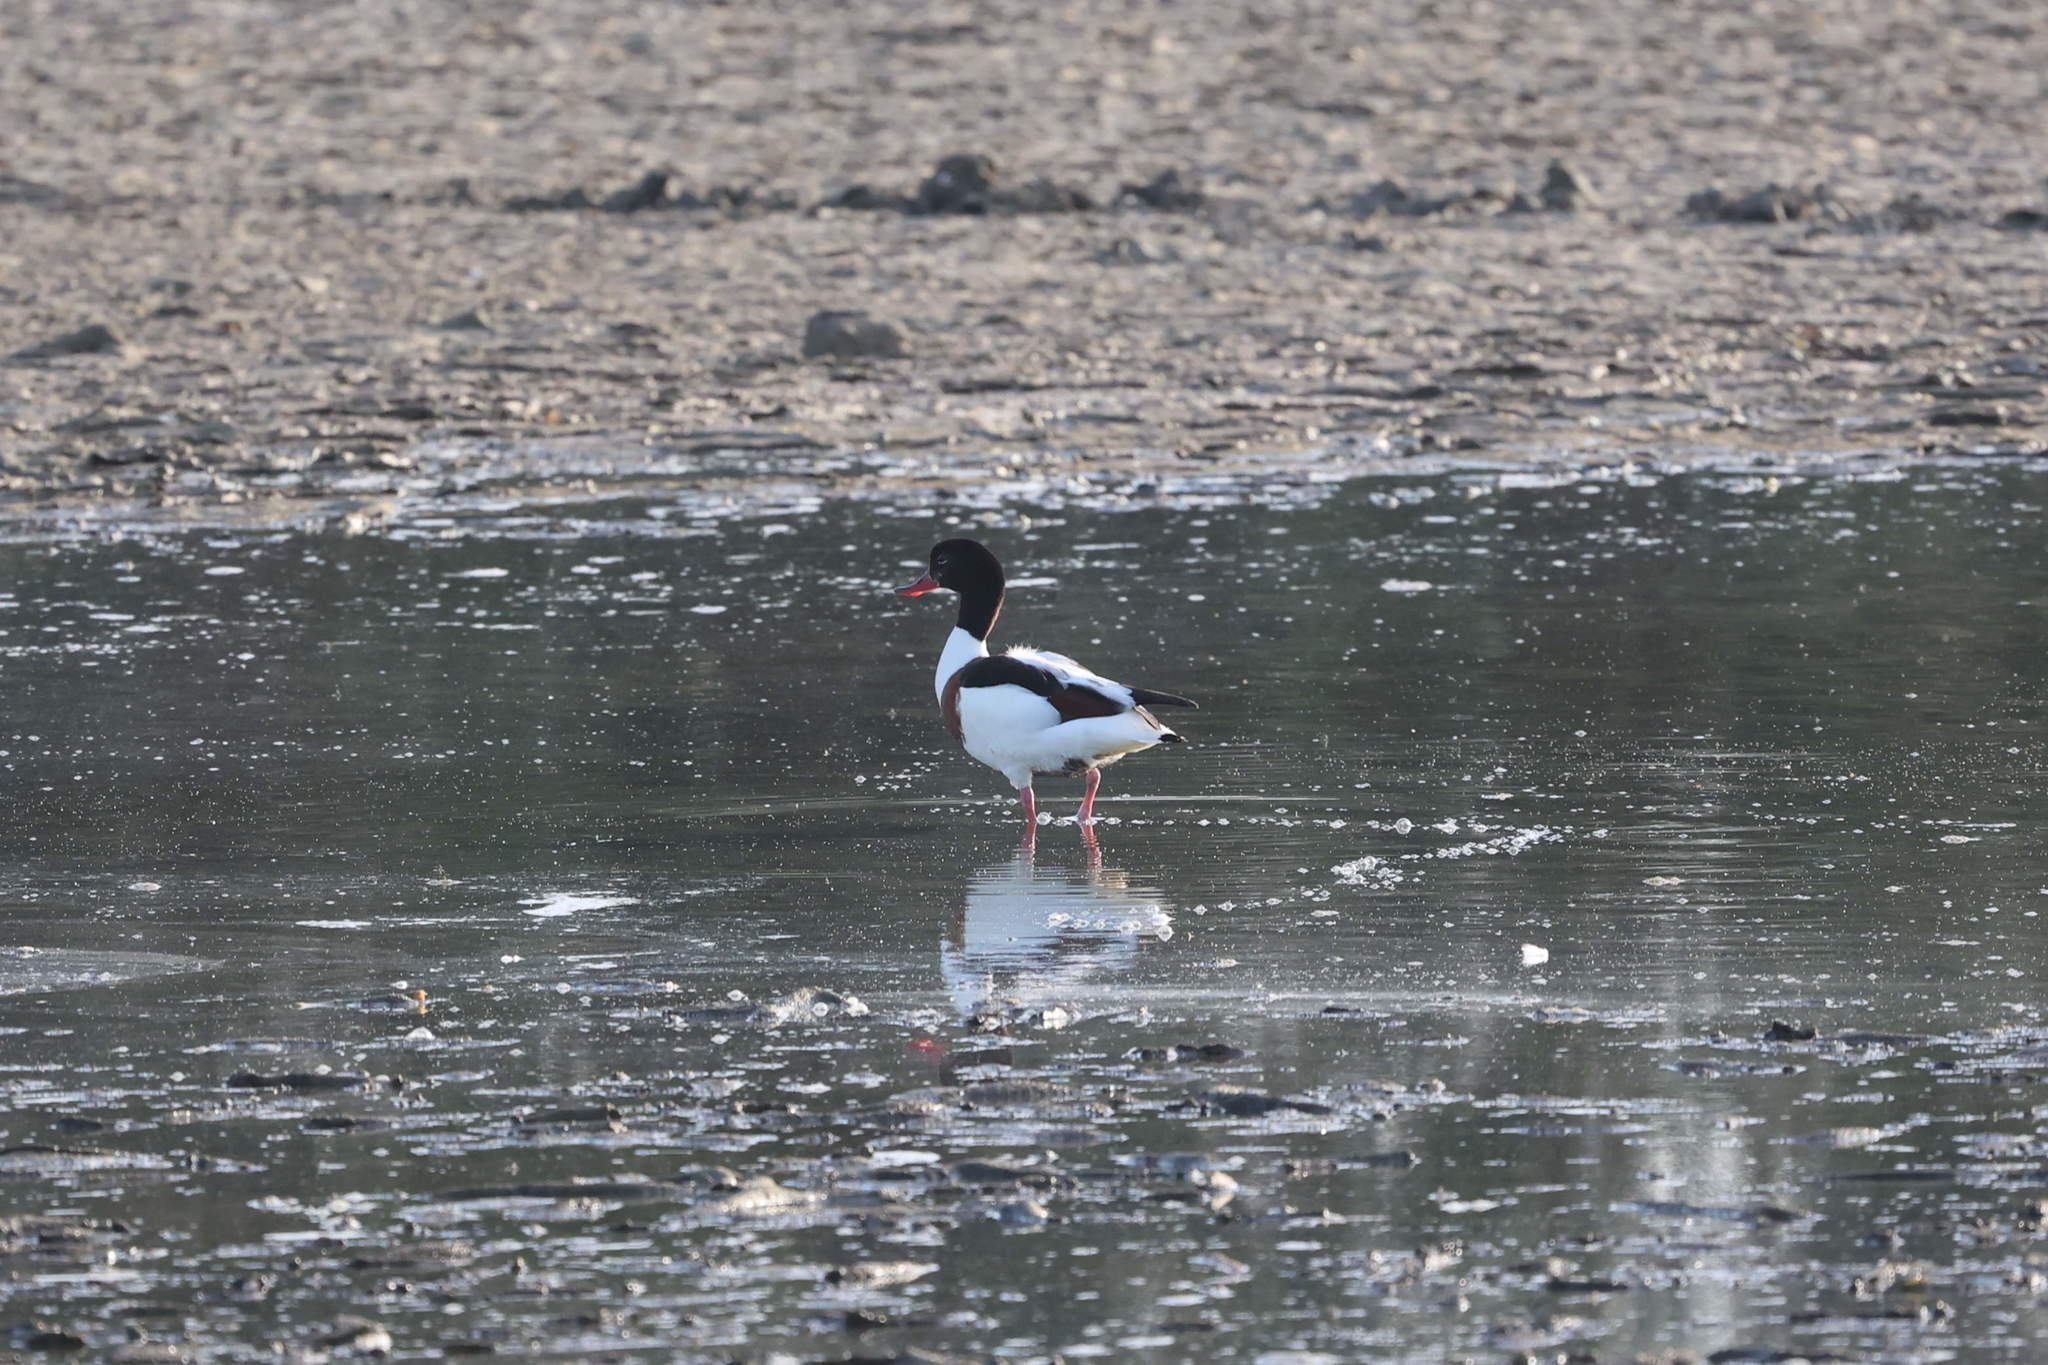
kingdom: Animalia
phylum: Chordata
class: Aves
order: Anseriformes
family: Anatidae
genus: Tadorna
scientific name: Tadorna tadorna
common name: Common shelduck
